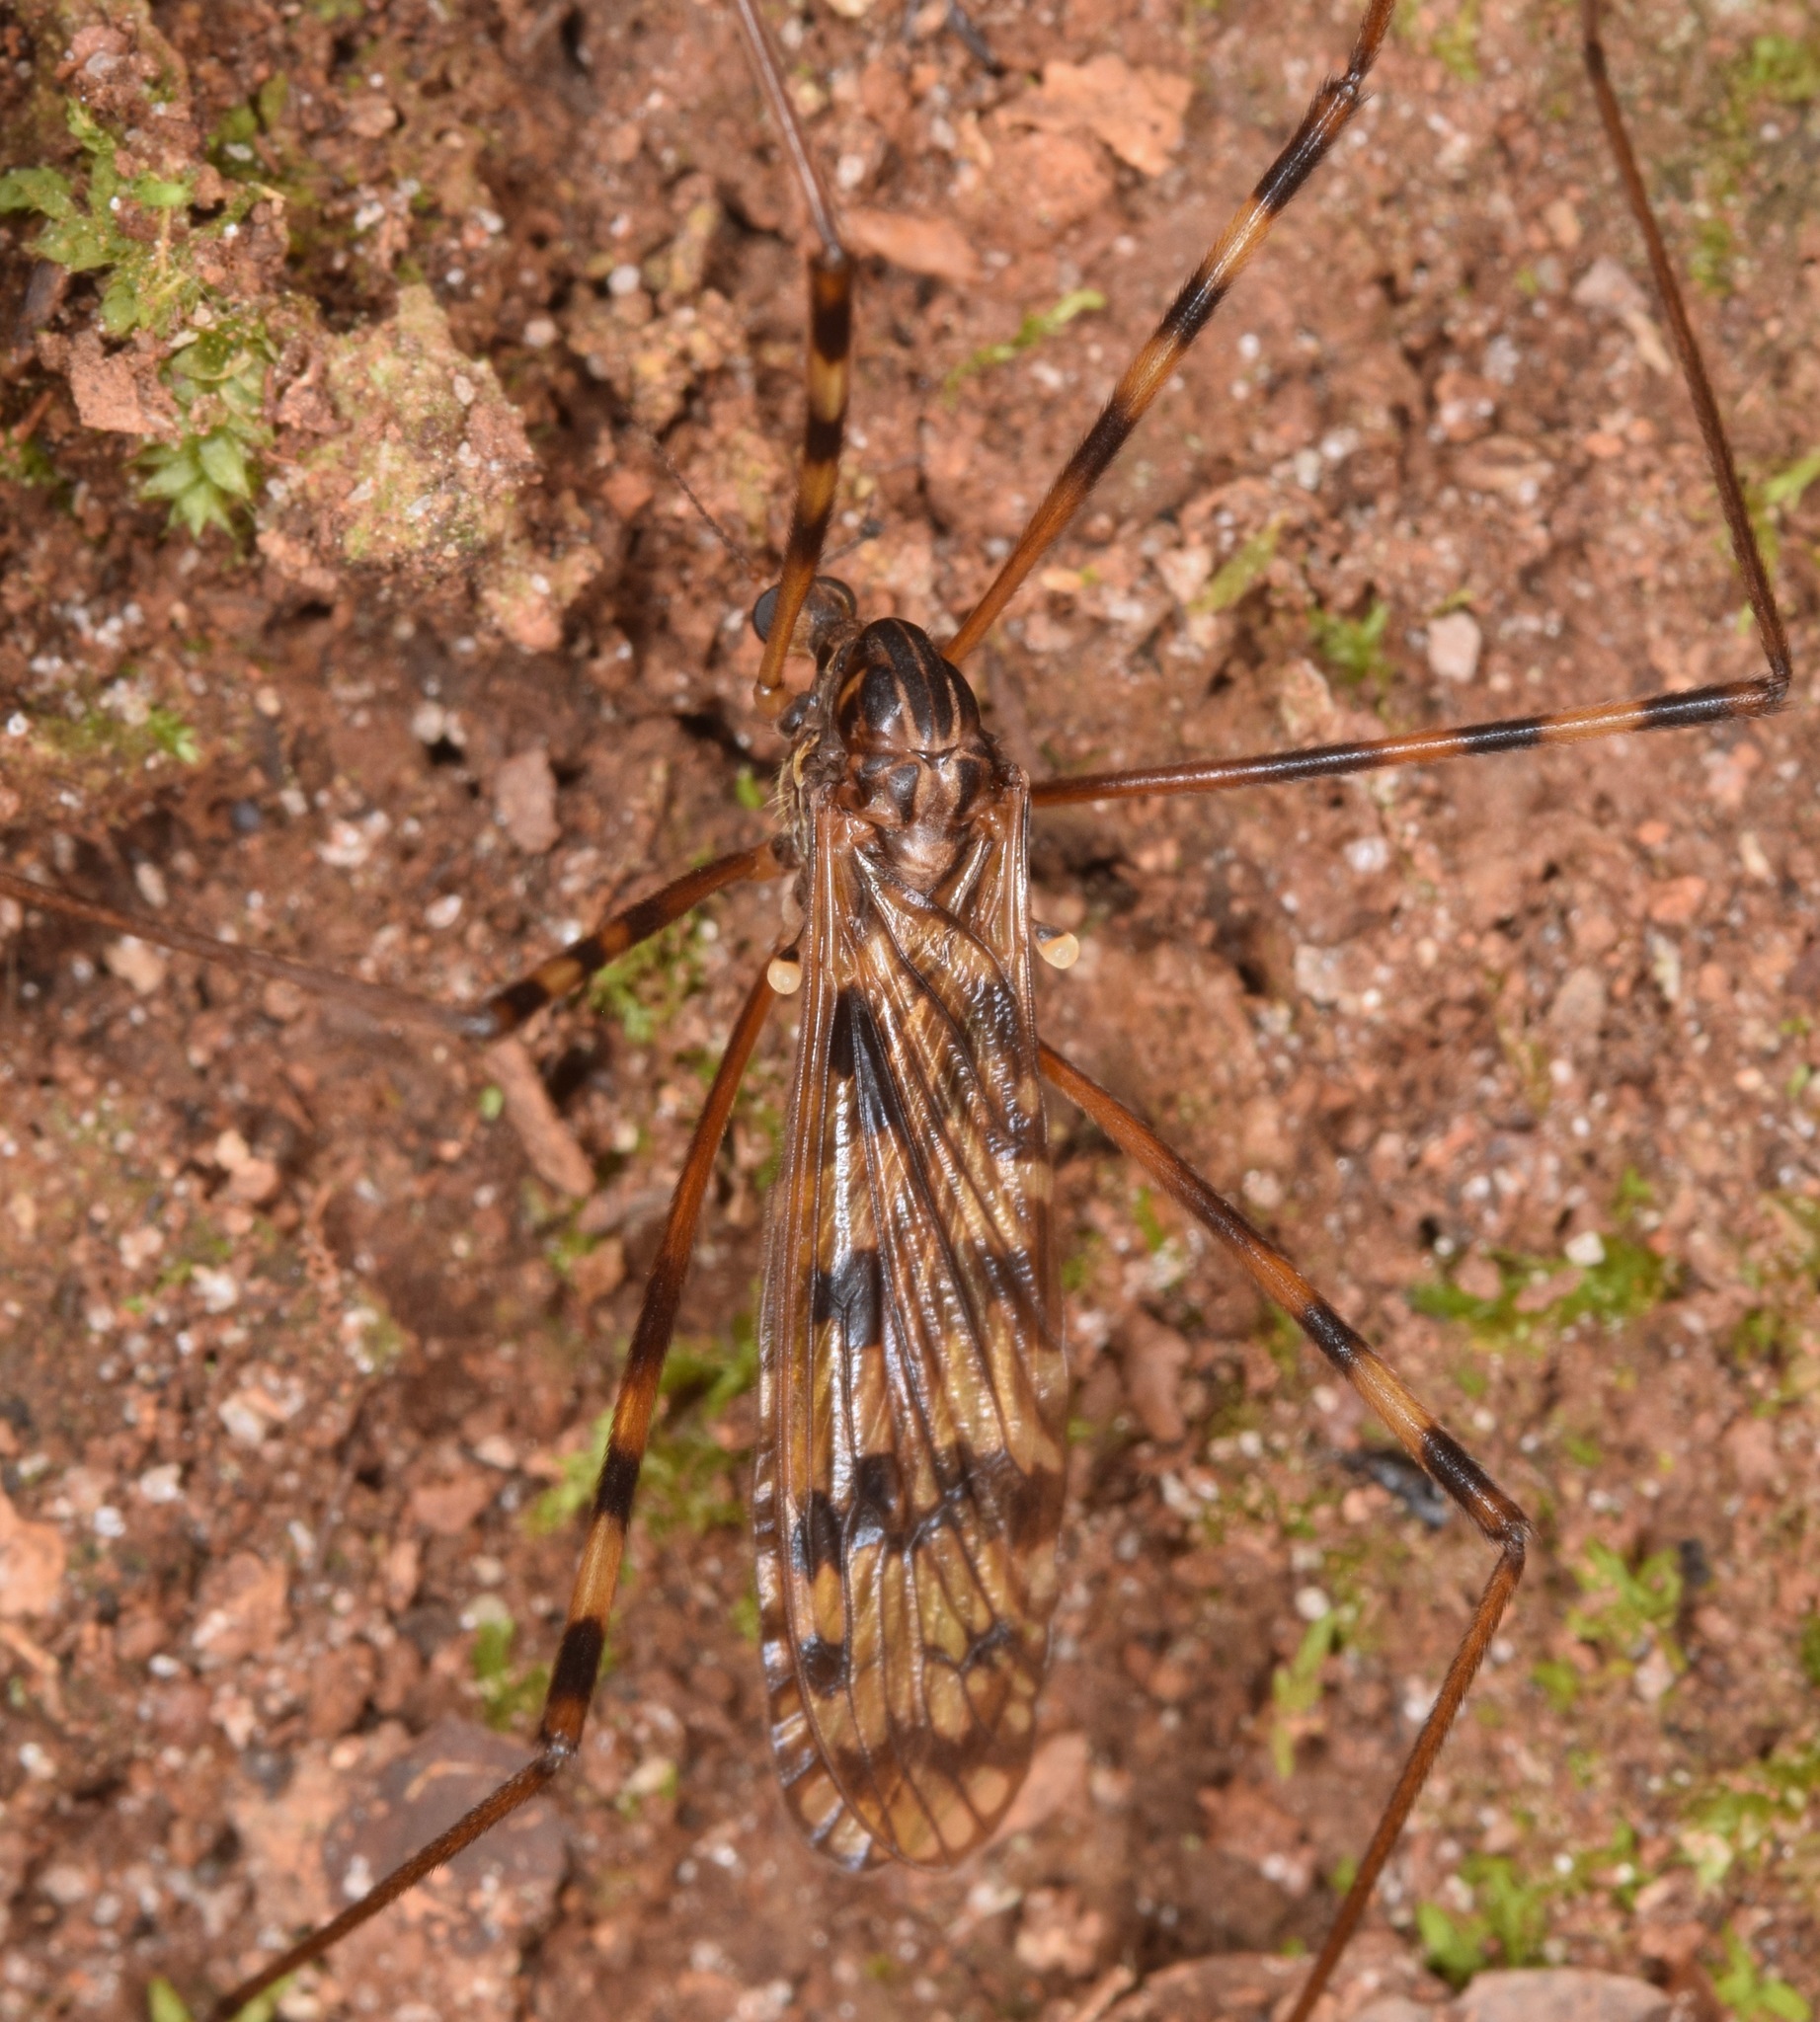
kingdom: Animalia
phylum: Arthropoda
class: Insecta
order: Diptera
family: Limoniidae
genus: Metalimnobia
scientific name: Metalimnobia immatura
